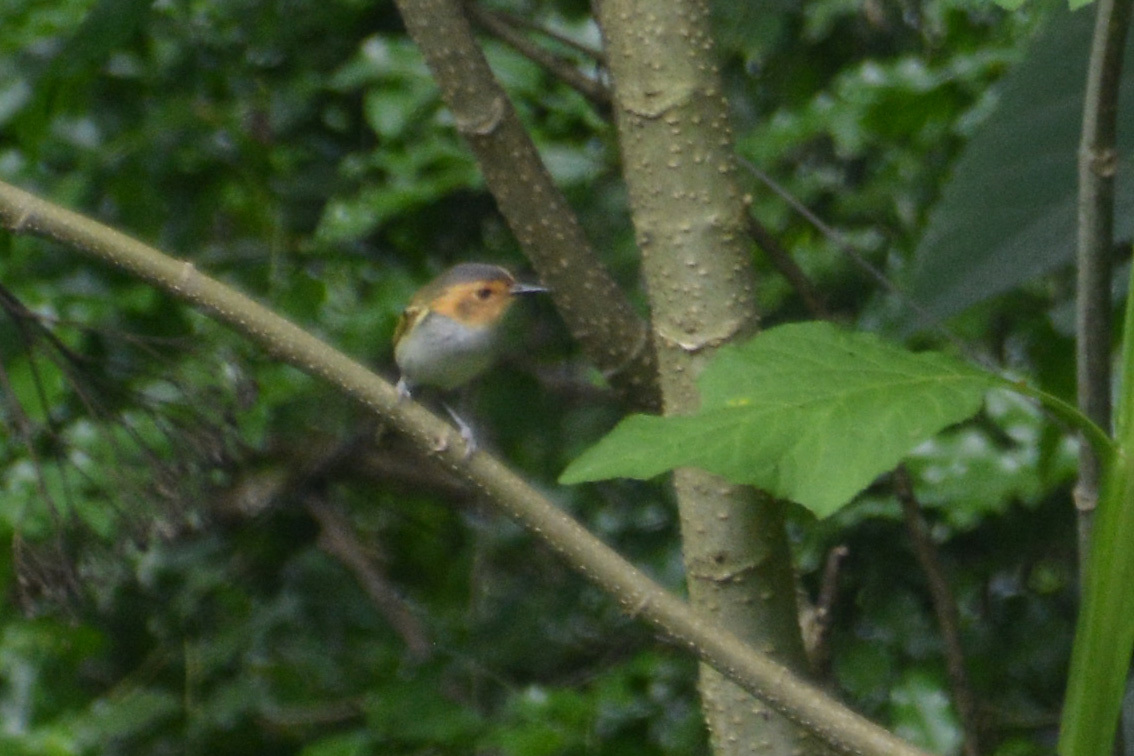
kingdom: Animalia
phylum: Chordata
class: Aves
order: Passeriformes
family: Tyrannidae
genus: Poecilotriccus
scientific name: Poecilotriccus plumbeiceps
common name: Ochre-faced tody-flycatcher
